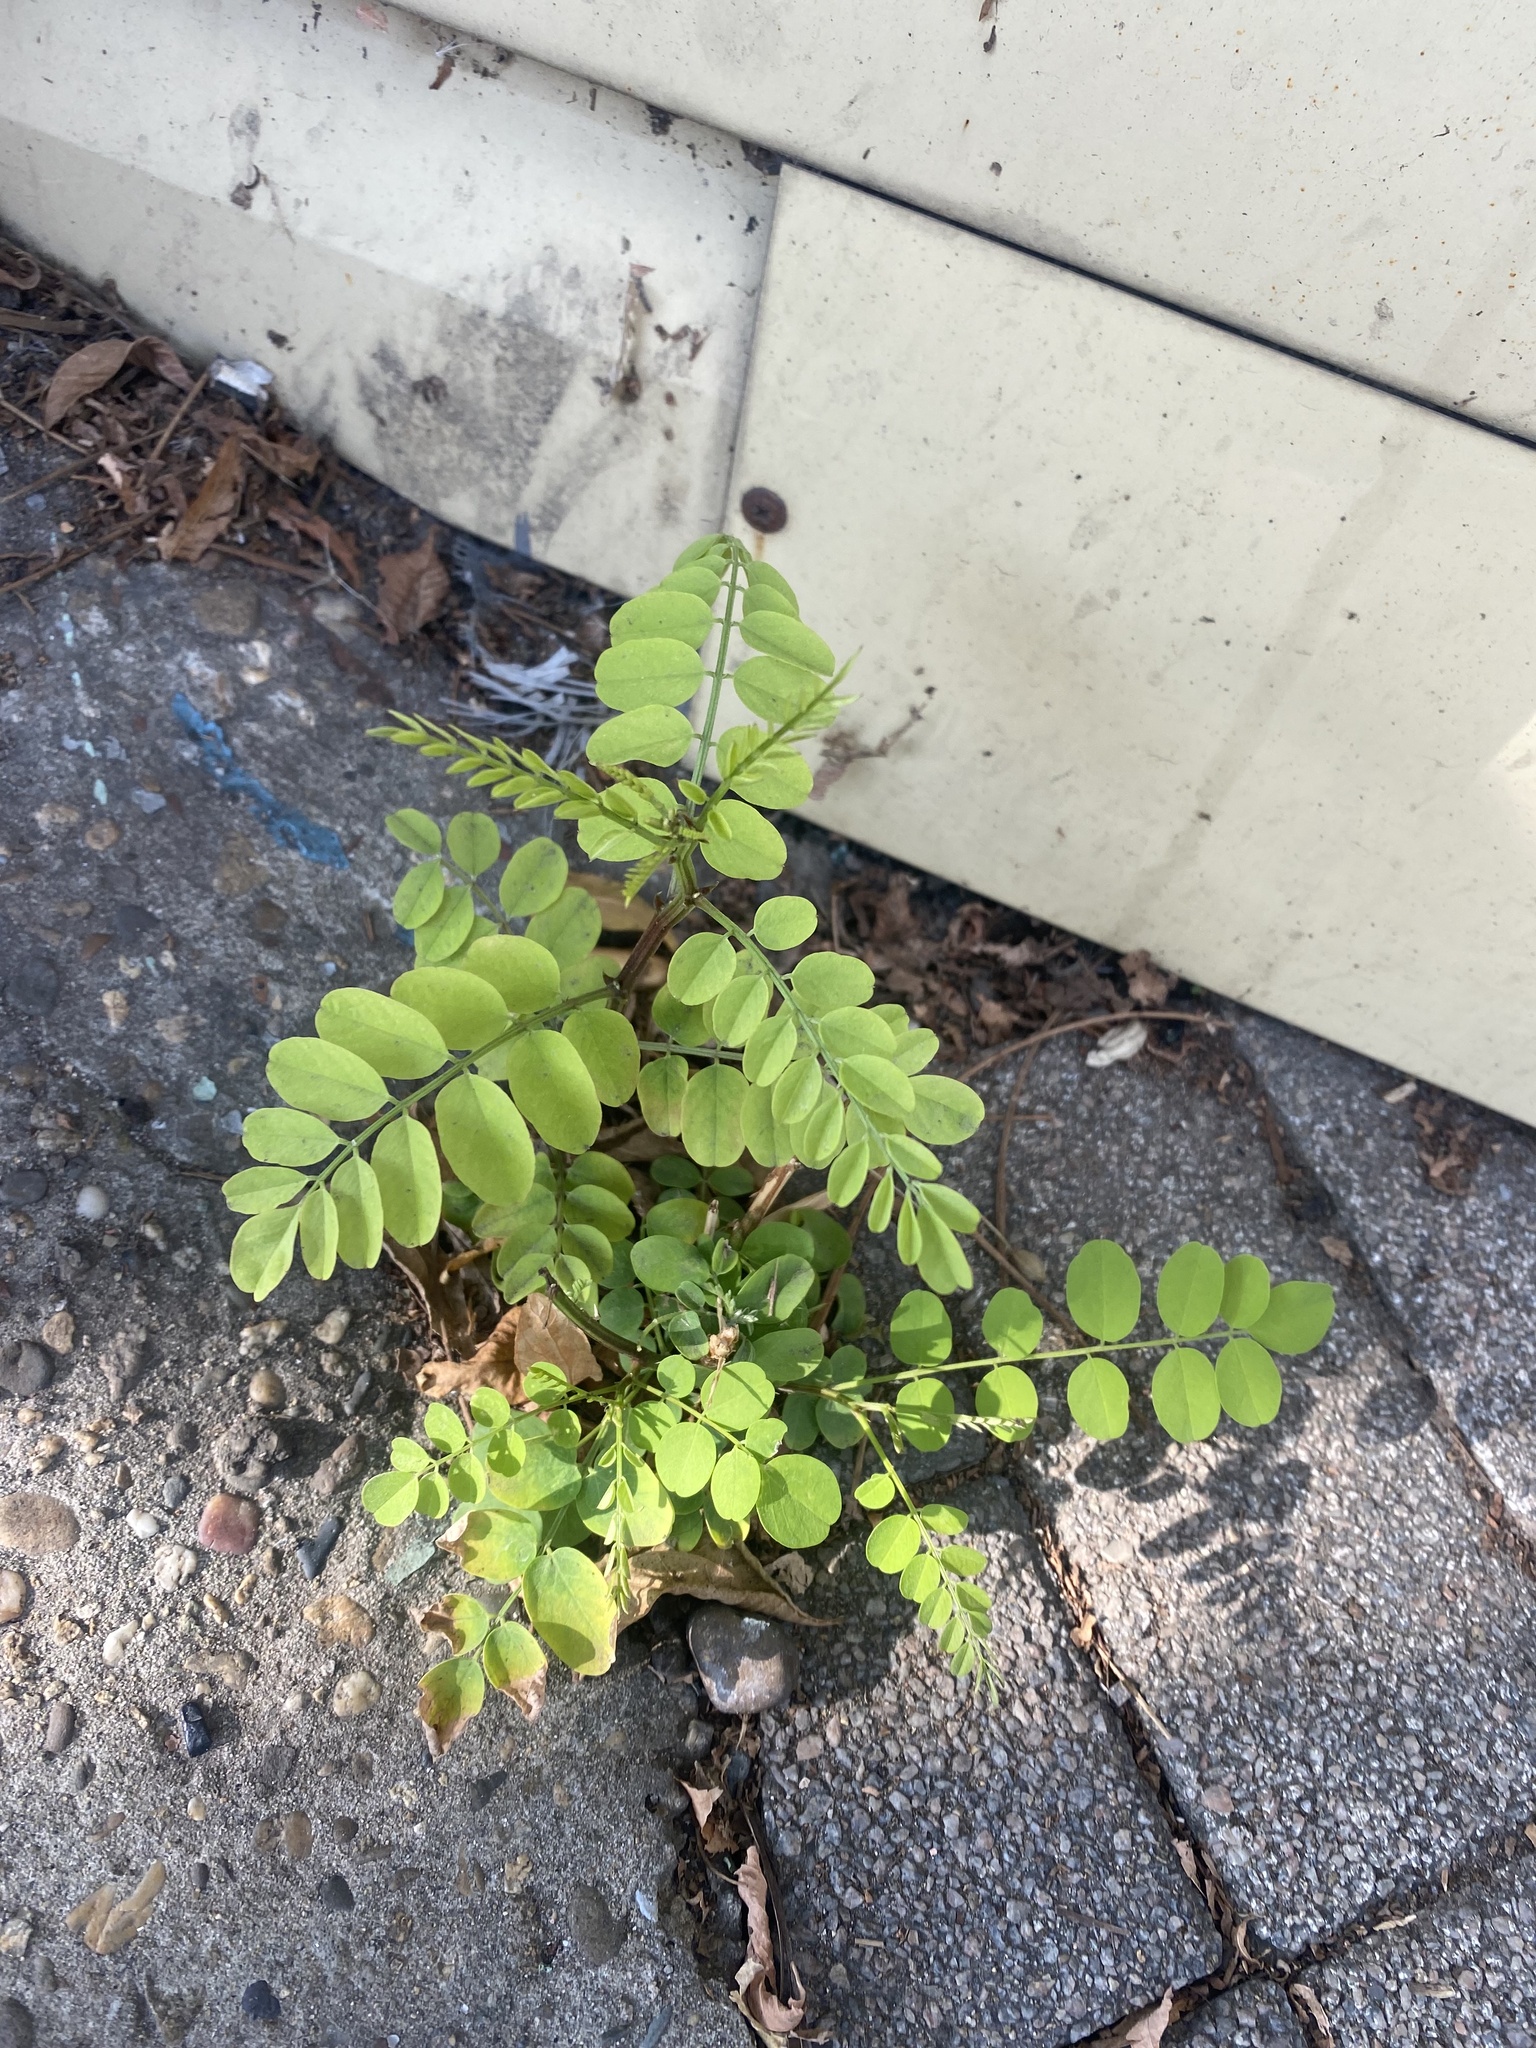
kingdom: Plantae
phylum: Tracheophyta
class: Magnoliopsida
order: Fabales
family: Fabaceae
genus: Robinia
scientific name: Robinia pseudoacacia
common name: Black locust
